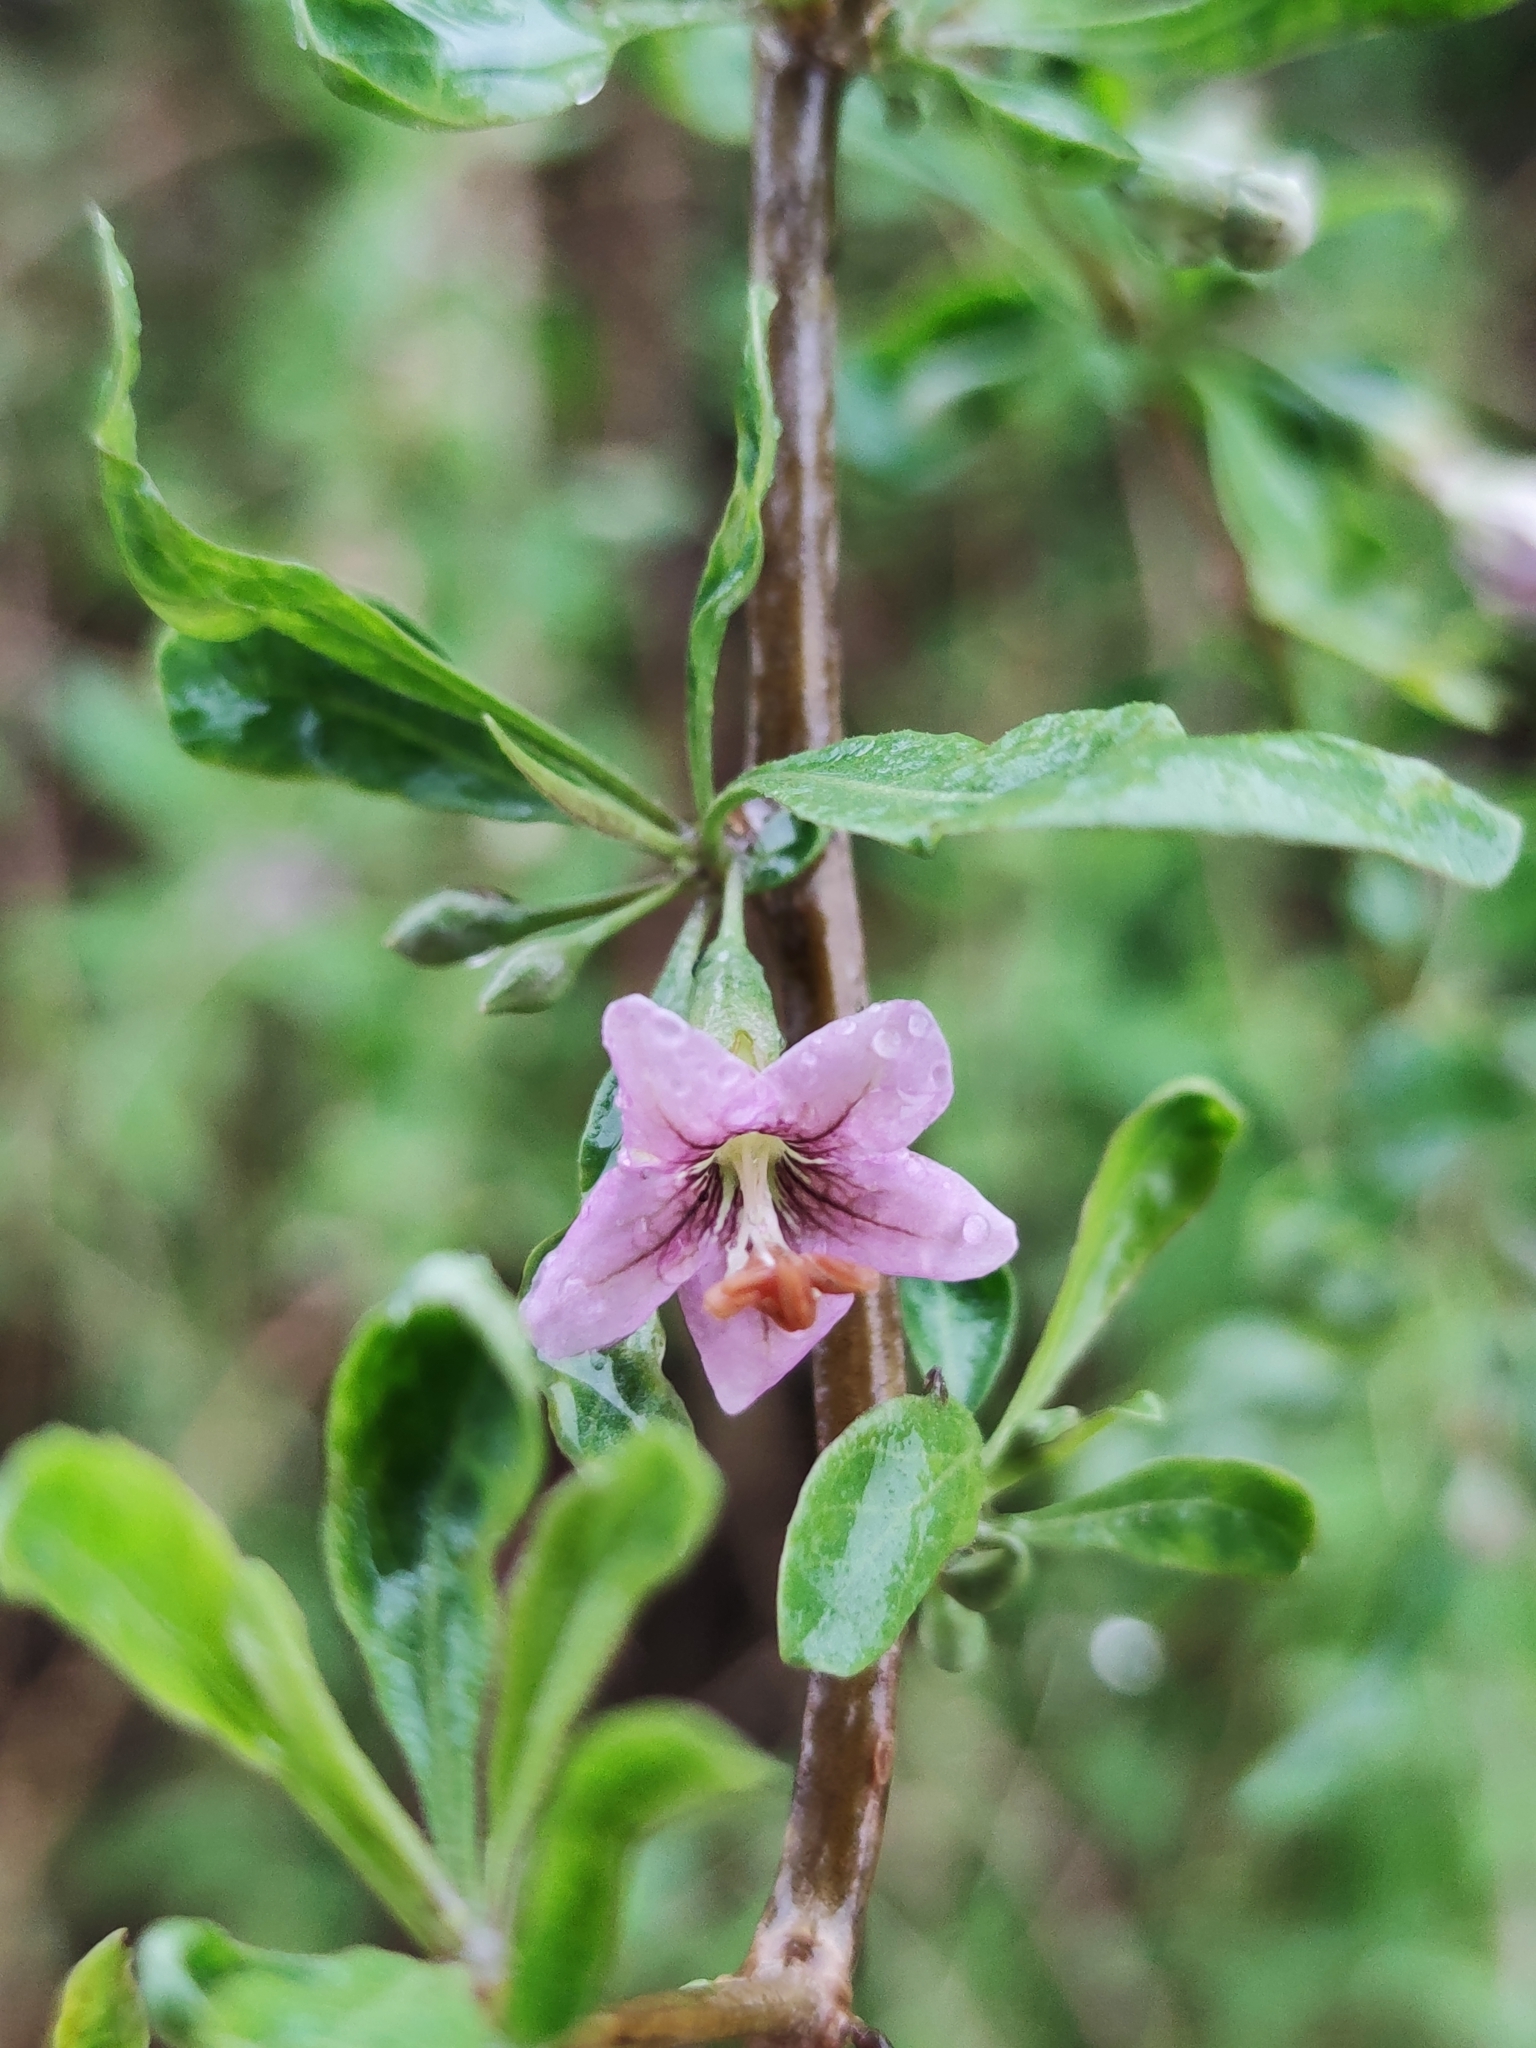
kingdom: Plantae
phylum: Tracheophyta
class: Magnoliopsida
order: Solanales
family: Solanaceae
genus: Lycium
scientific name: Lycium barbarum
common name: Duke of argyll's teaplant
